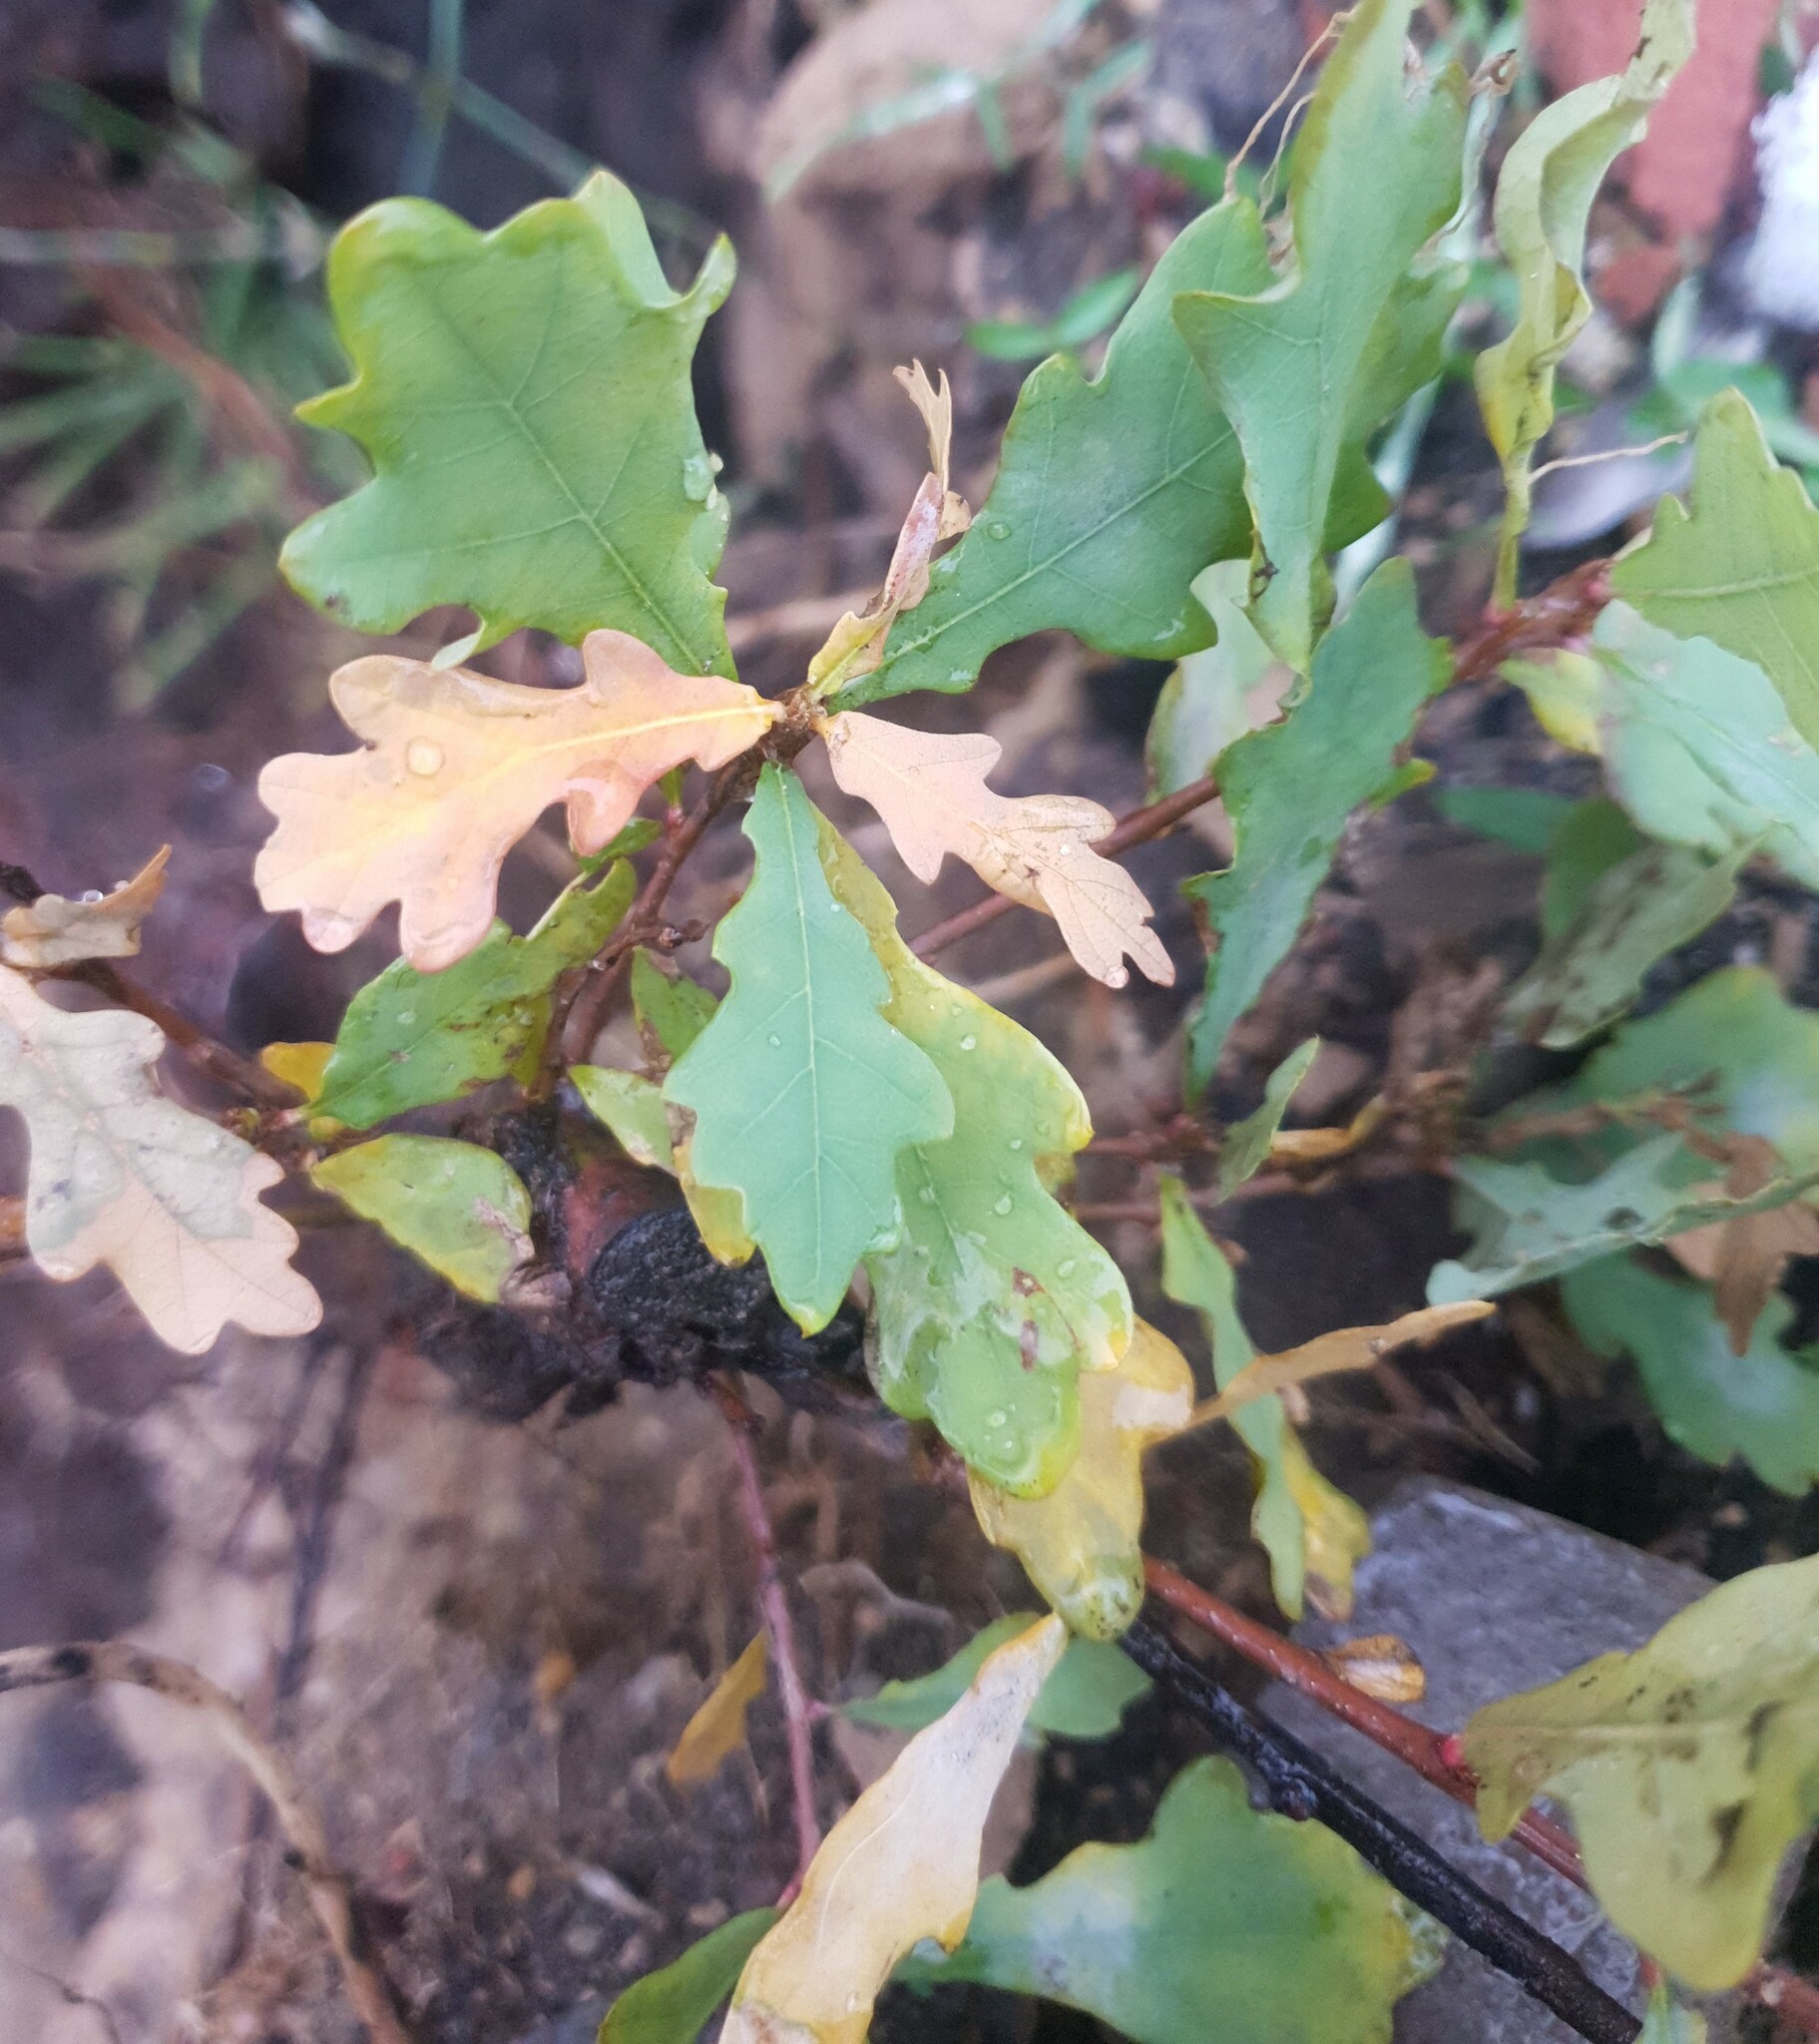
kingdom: Plantae
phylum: Tracheophyta
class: Magnoliopsida
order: Fagales
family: Fagaceae
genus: Quercus
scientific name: Quercus robur
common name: Pedunculate oak
